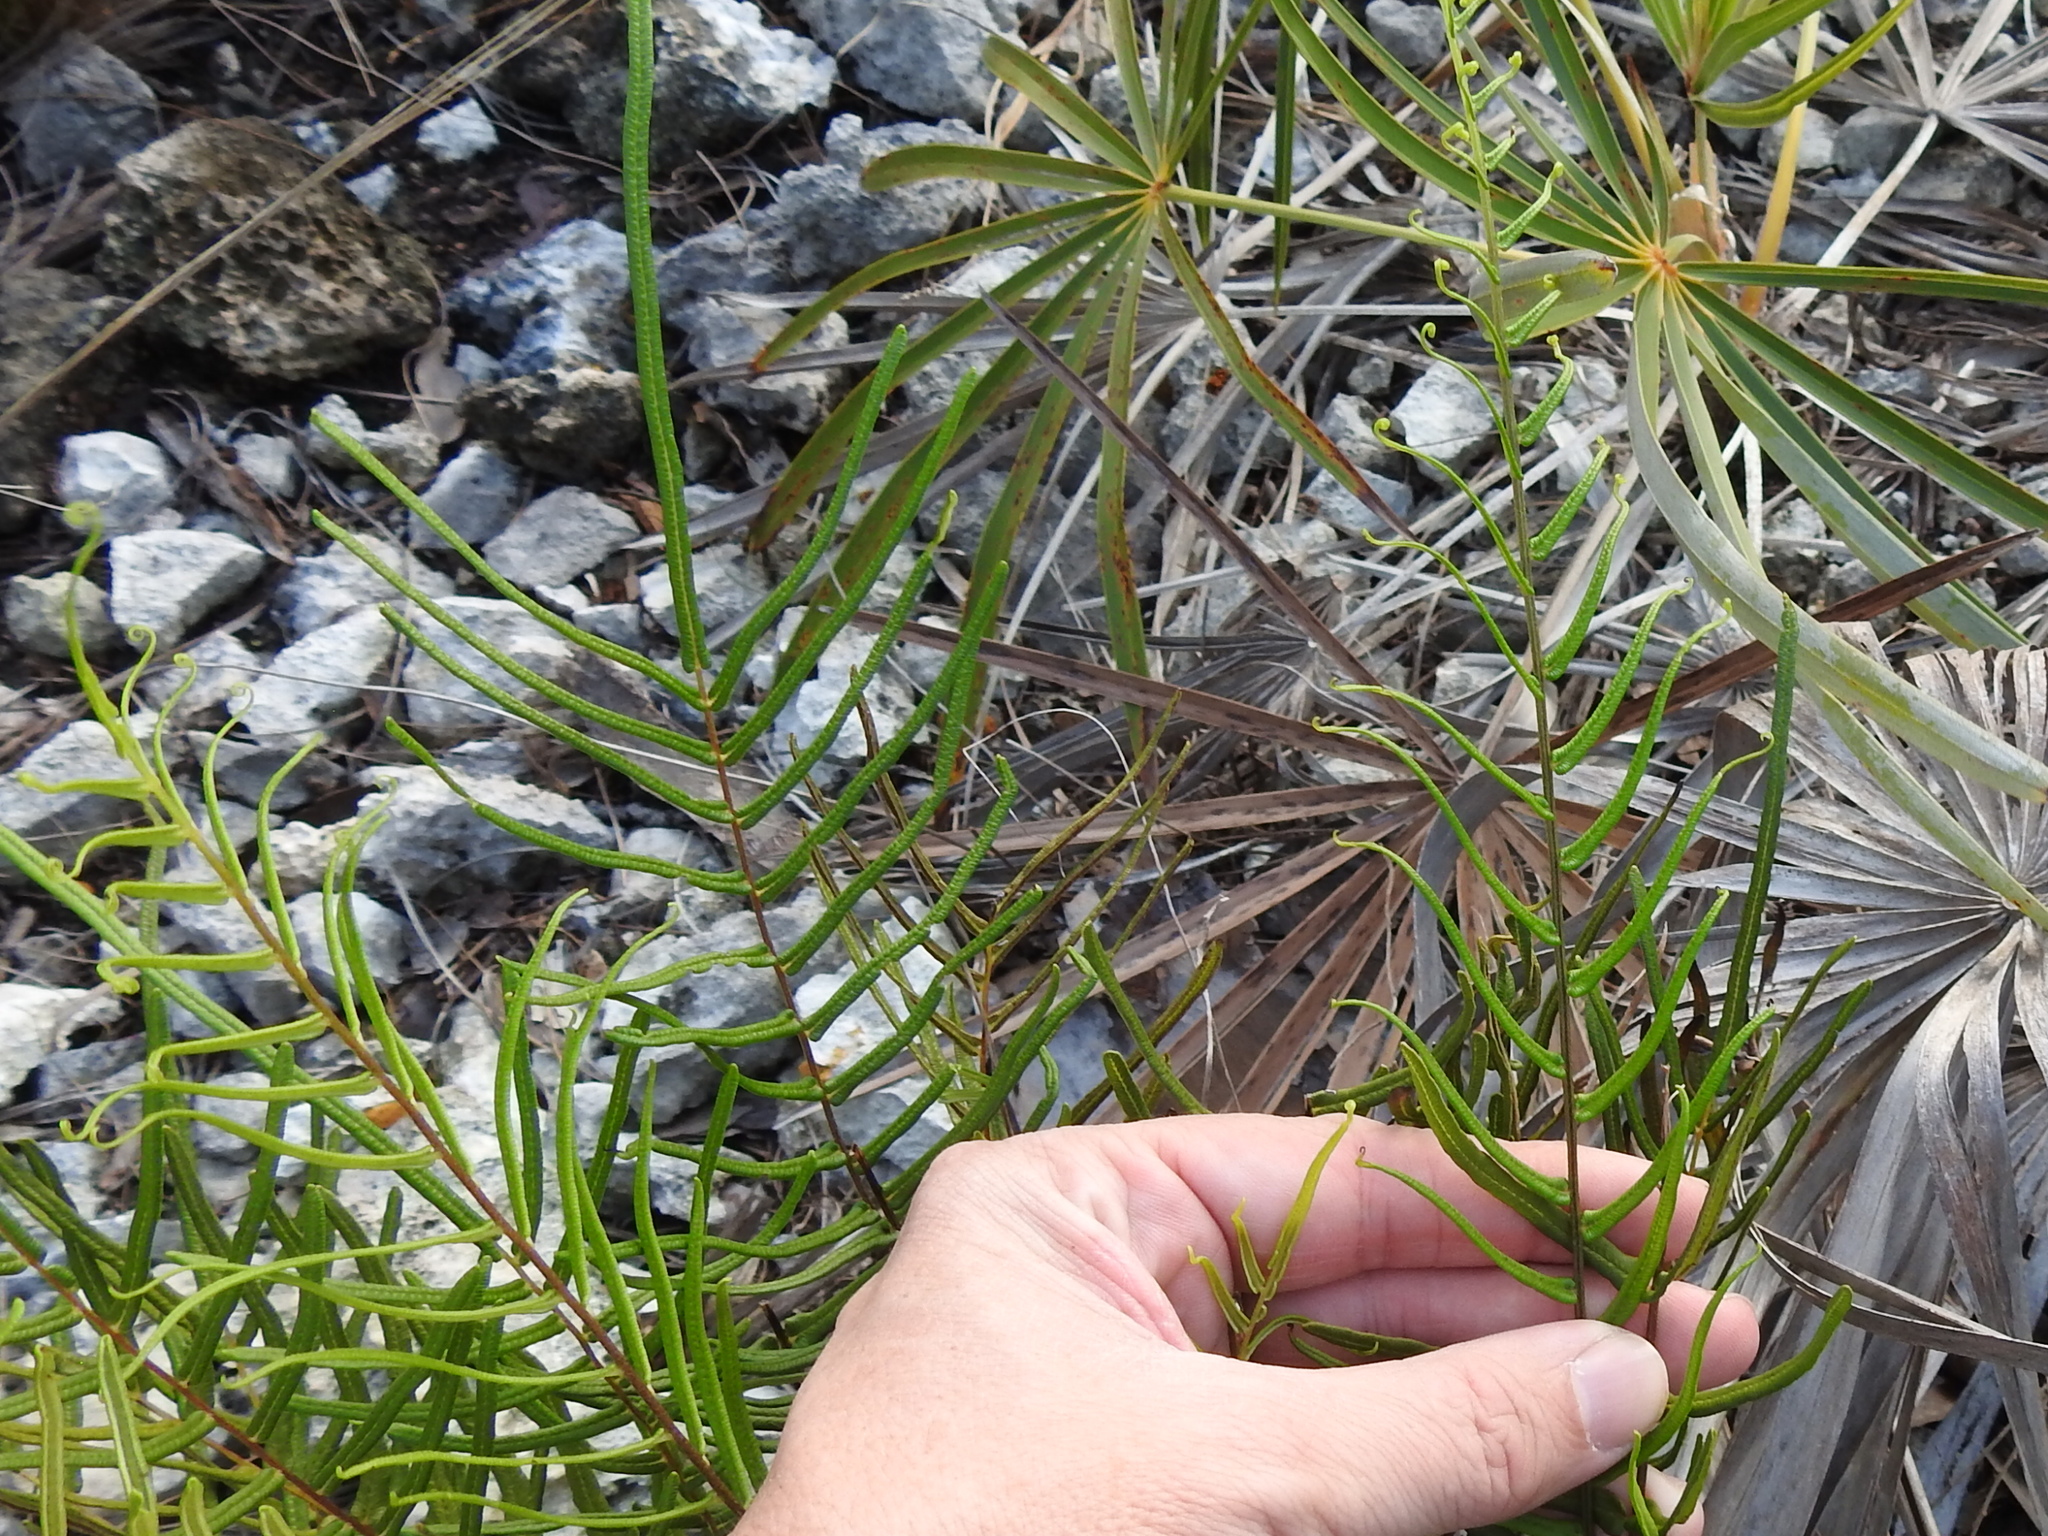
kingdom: Plantae
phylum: Tracheophyta
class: Polypodiopsida
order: Polypodiales
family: Pteridaceae
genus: Pteris
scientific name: Pteris bahamensis
